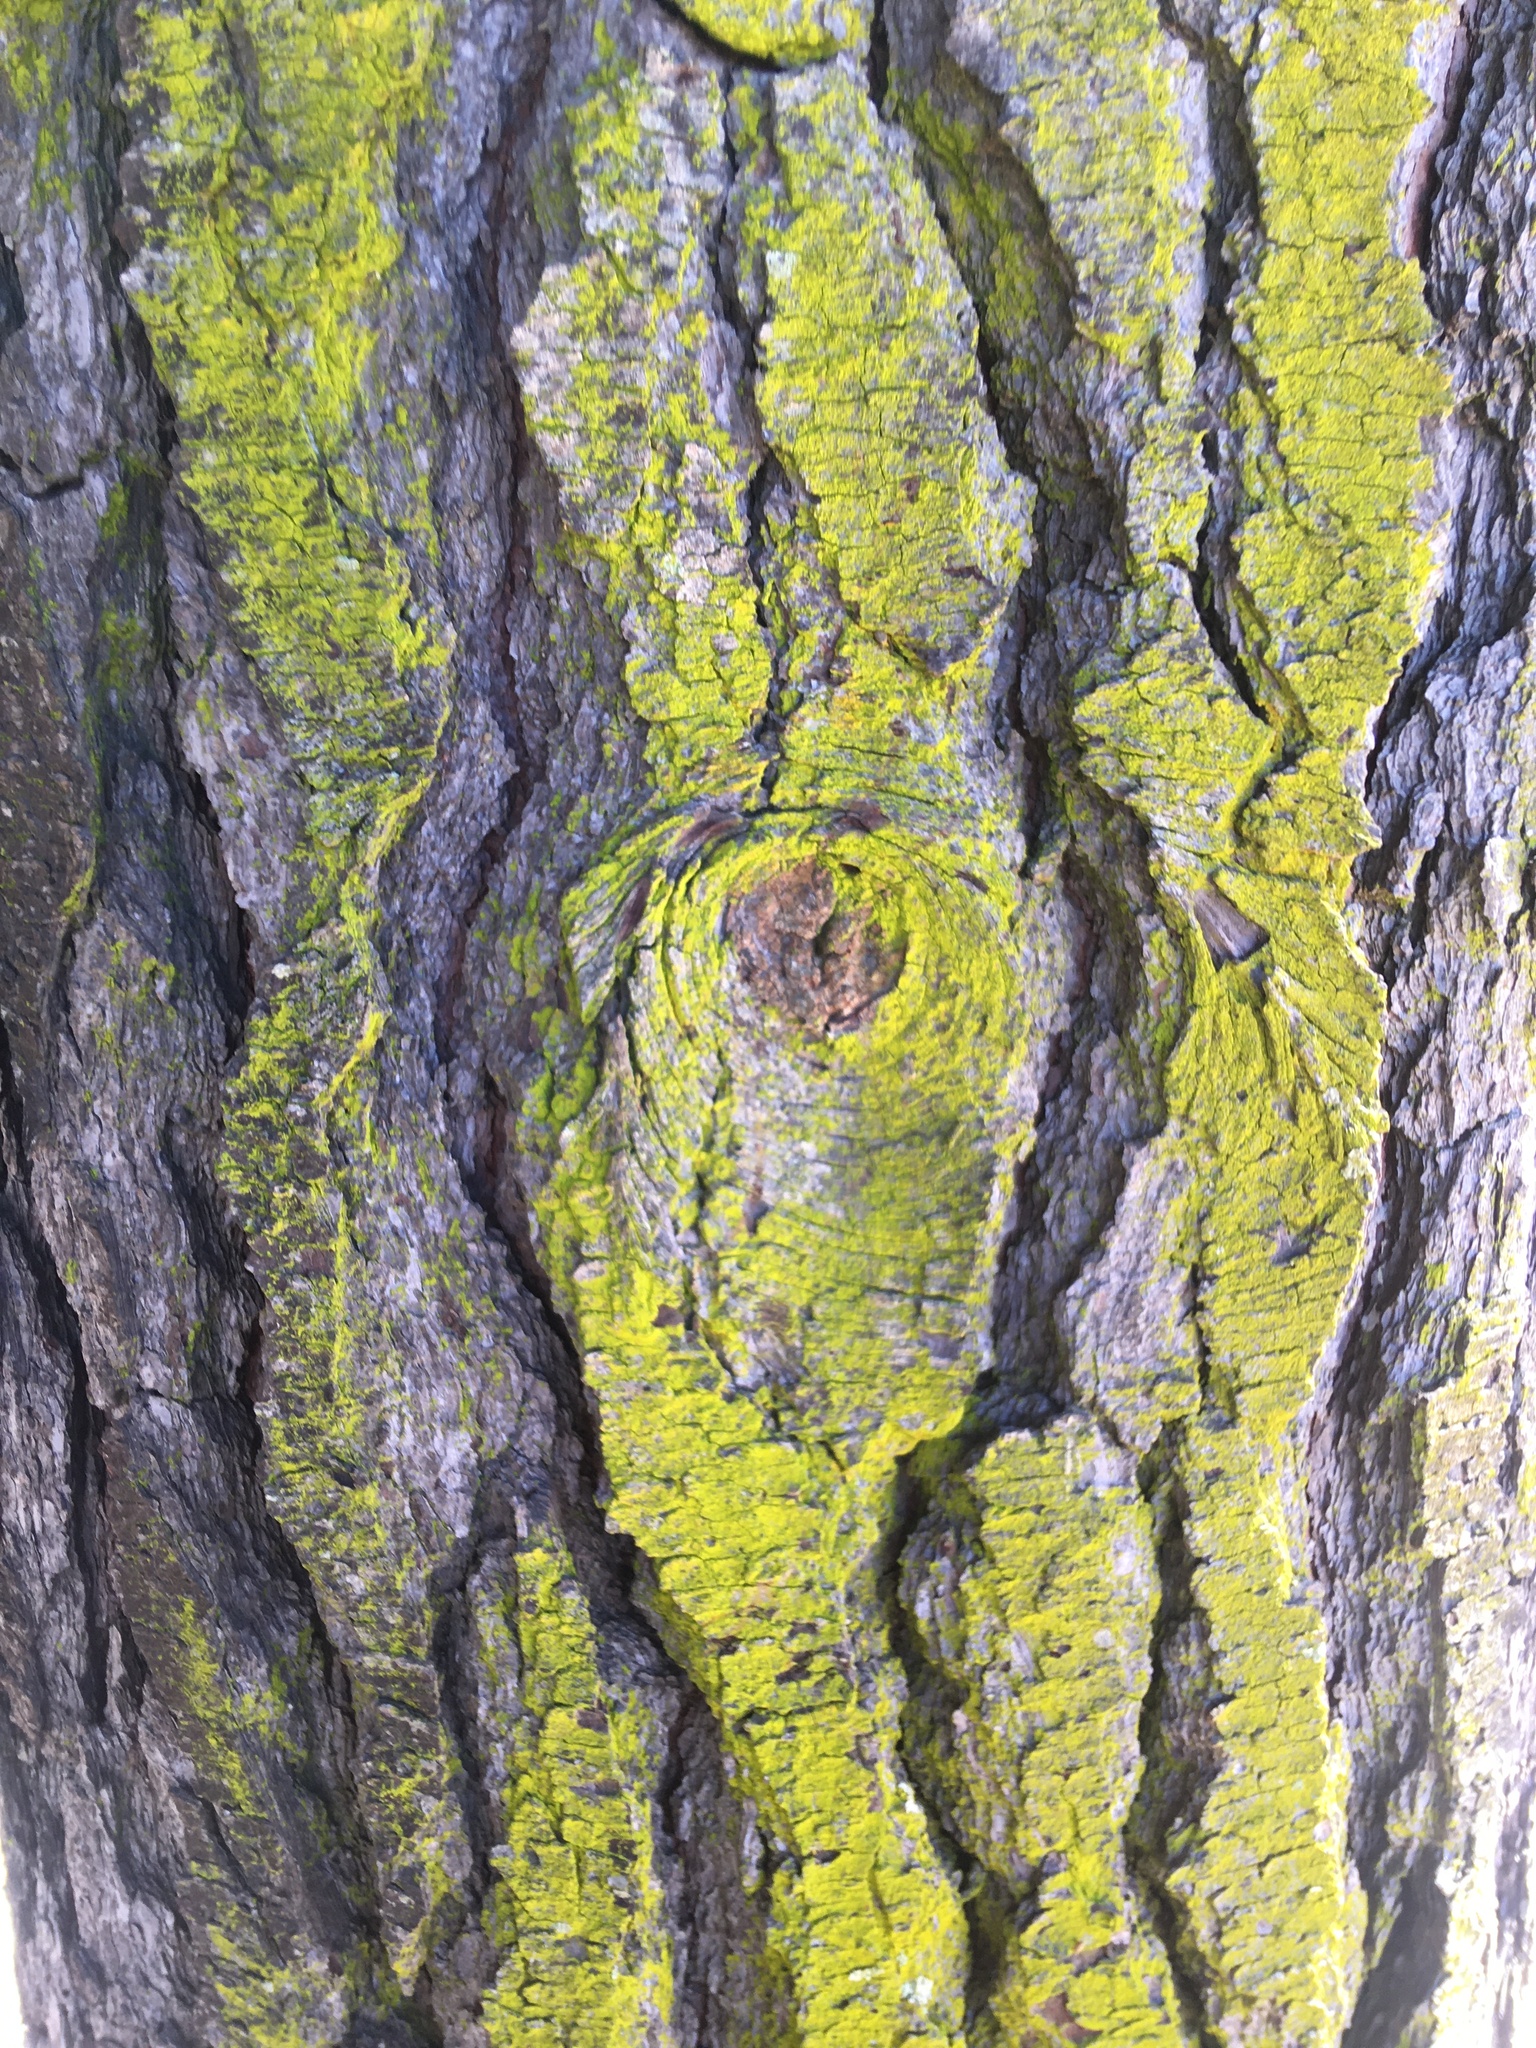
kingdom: Fungi
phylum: Ascomycota
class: Arthoniomycetes
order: Arthoniales
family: Chrysotrichaceae
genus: Chrysothrix
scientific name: Chrysothrix candelaris
